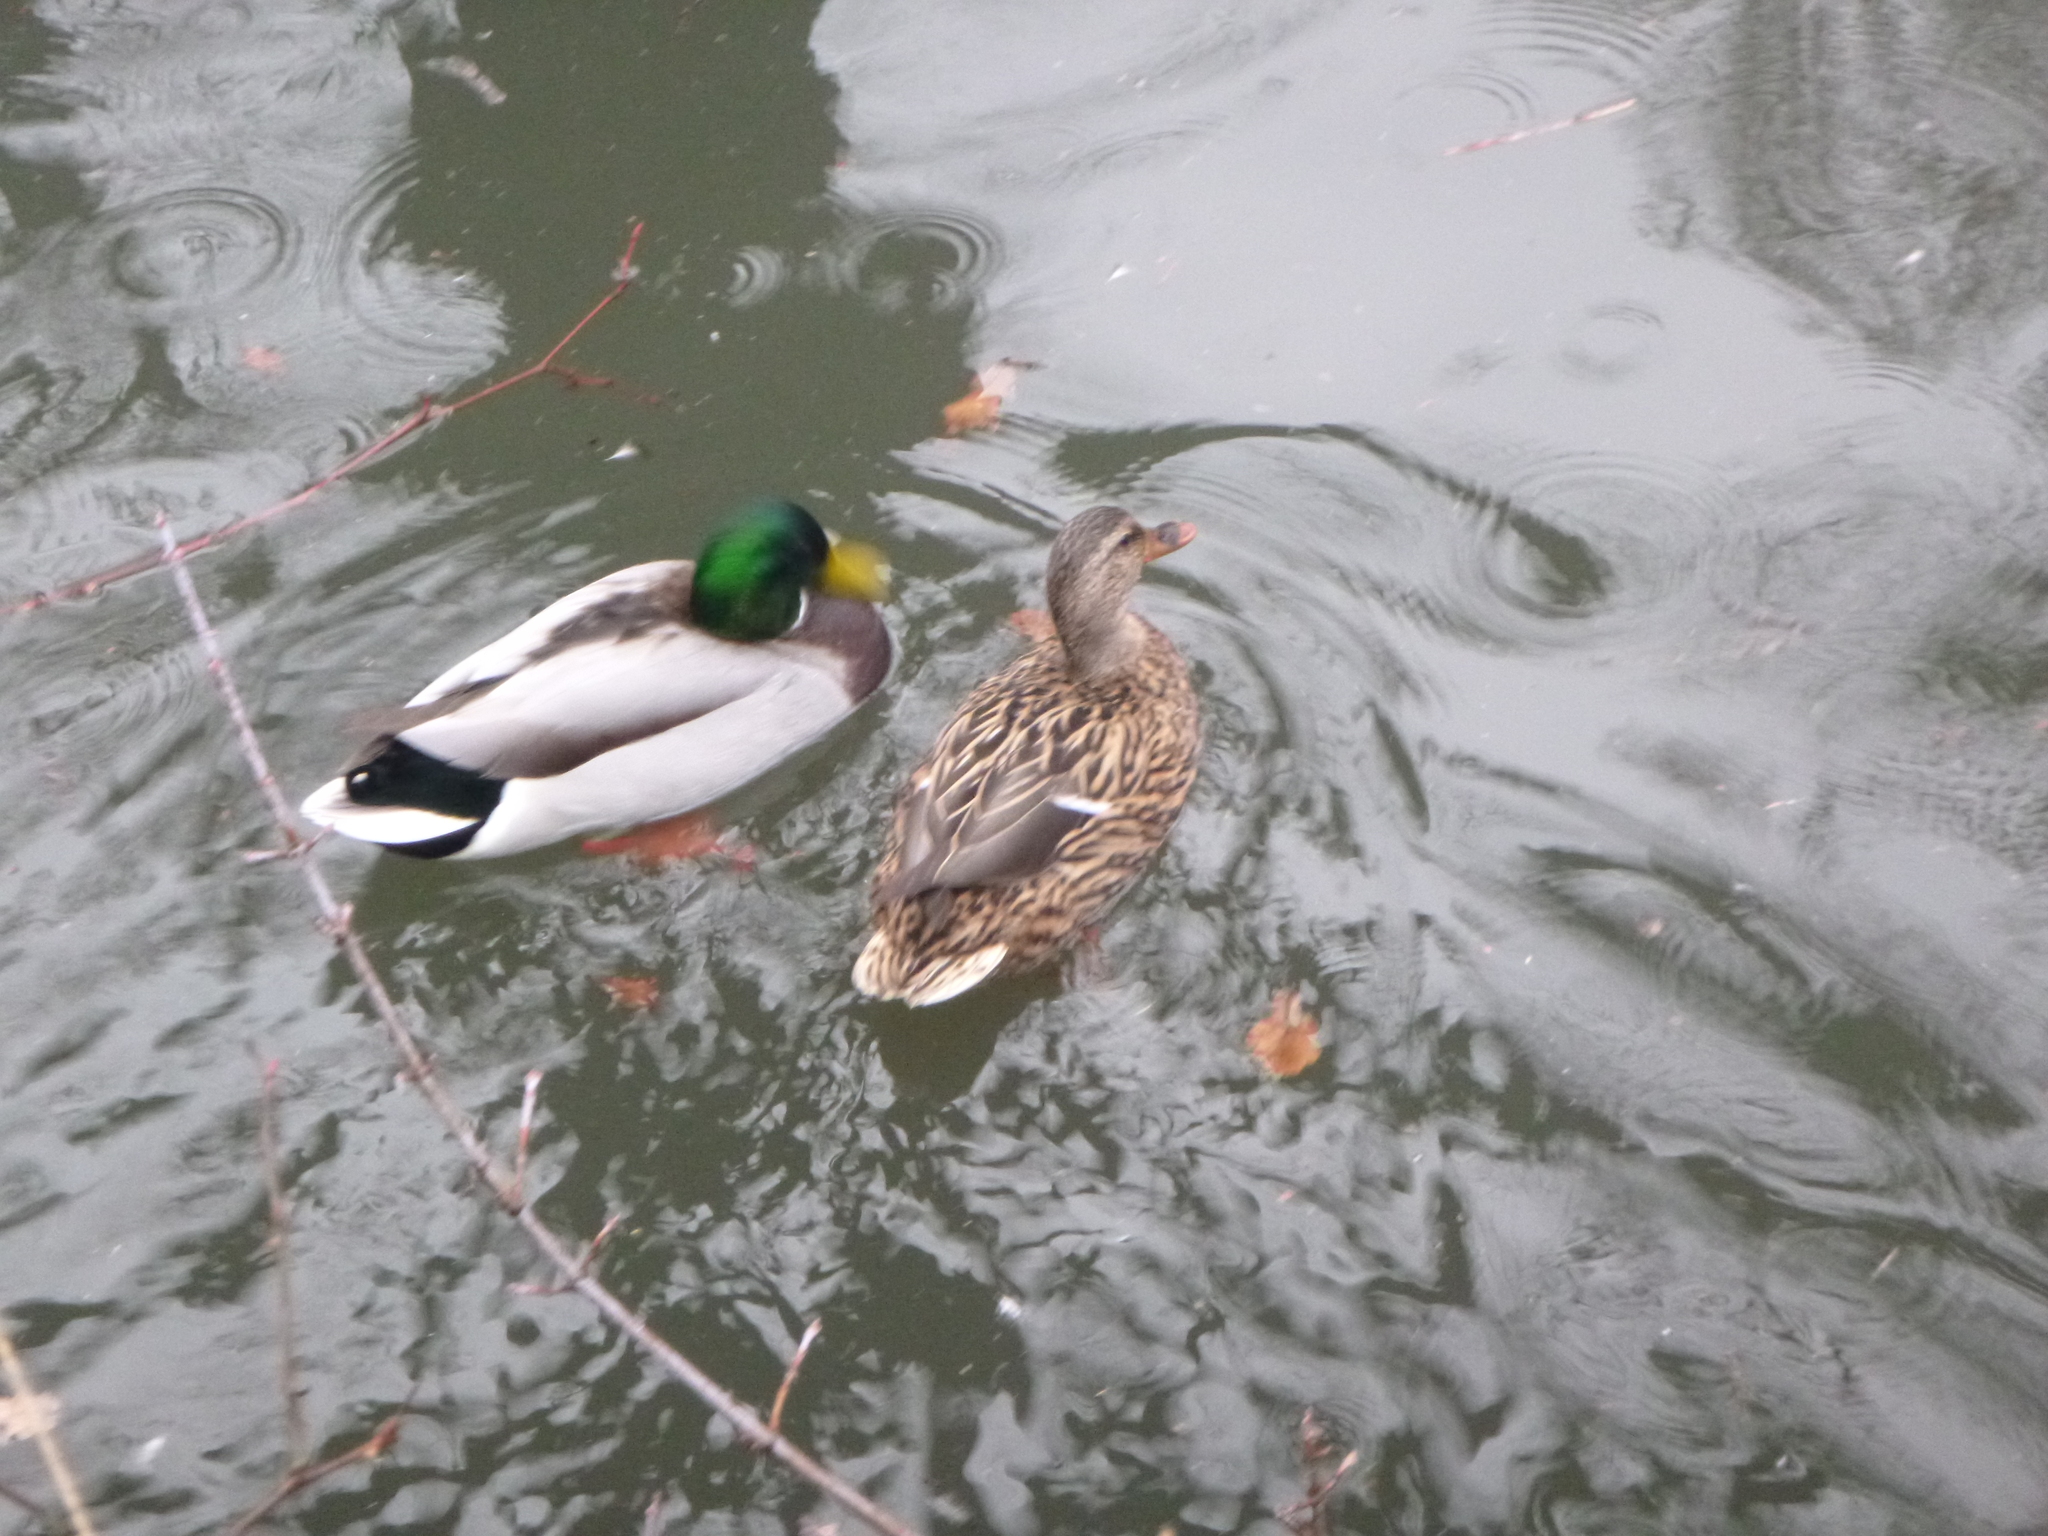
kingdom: Animalia
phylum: Chordata
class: Aves
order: Anseriformes
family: Anatidae
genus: Anas
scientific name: Anas platyrhynchos
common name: Mallard
